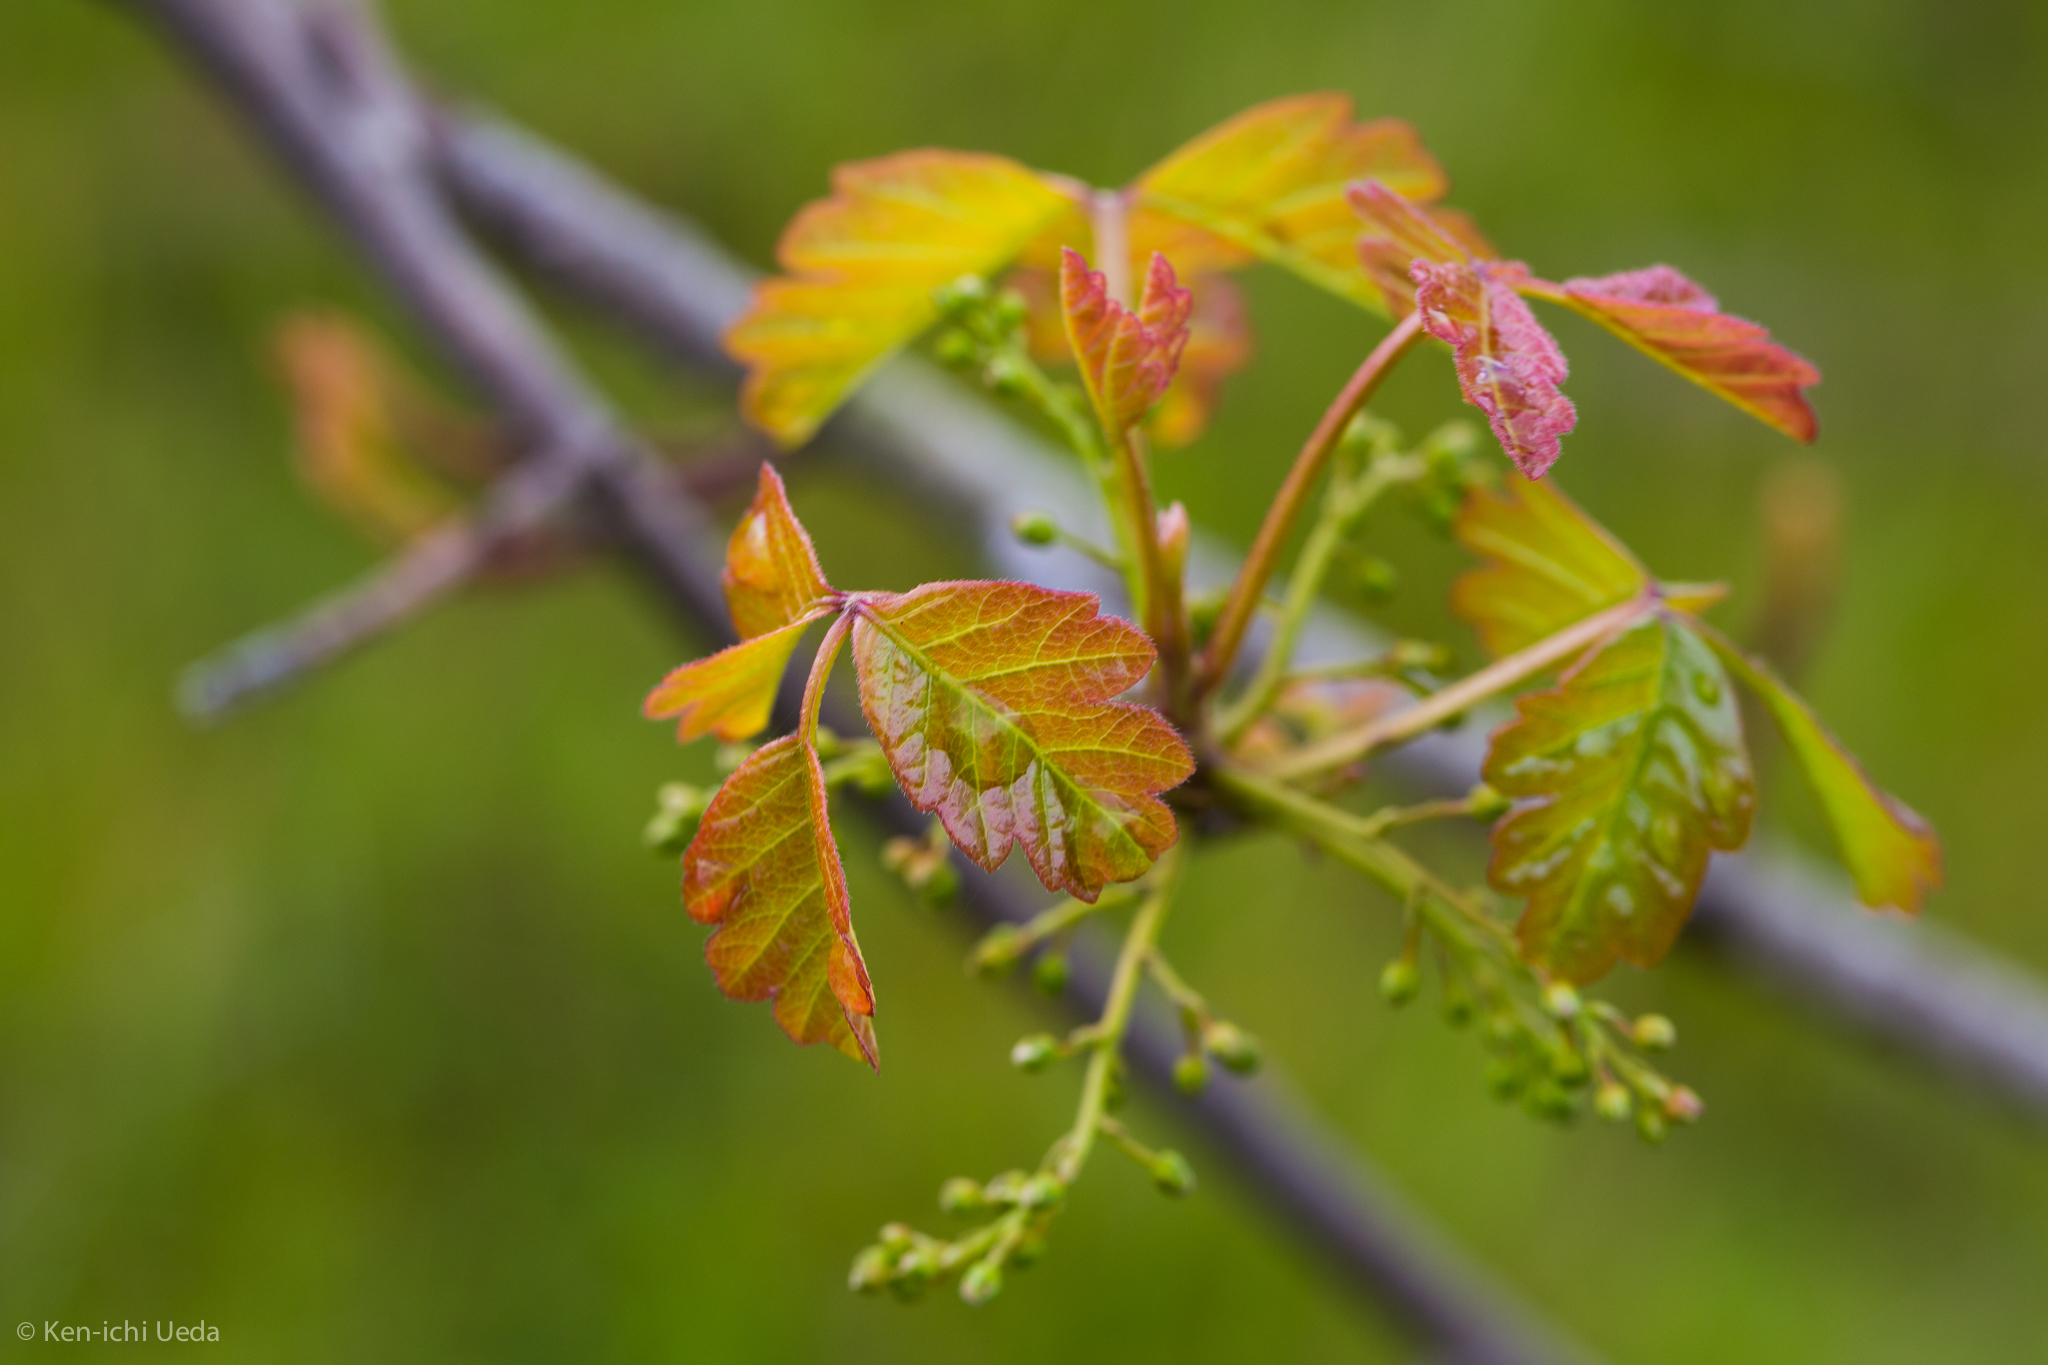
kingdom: Plantae
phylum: Tracheophyta
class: Magnoliopsida
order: Sapindales
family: Anacardiaceae
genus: Toxicodendron
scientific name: Toxicodendron diversilobum
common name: Pacific poison-oak
